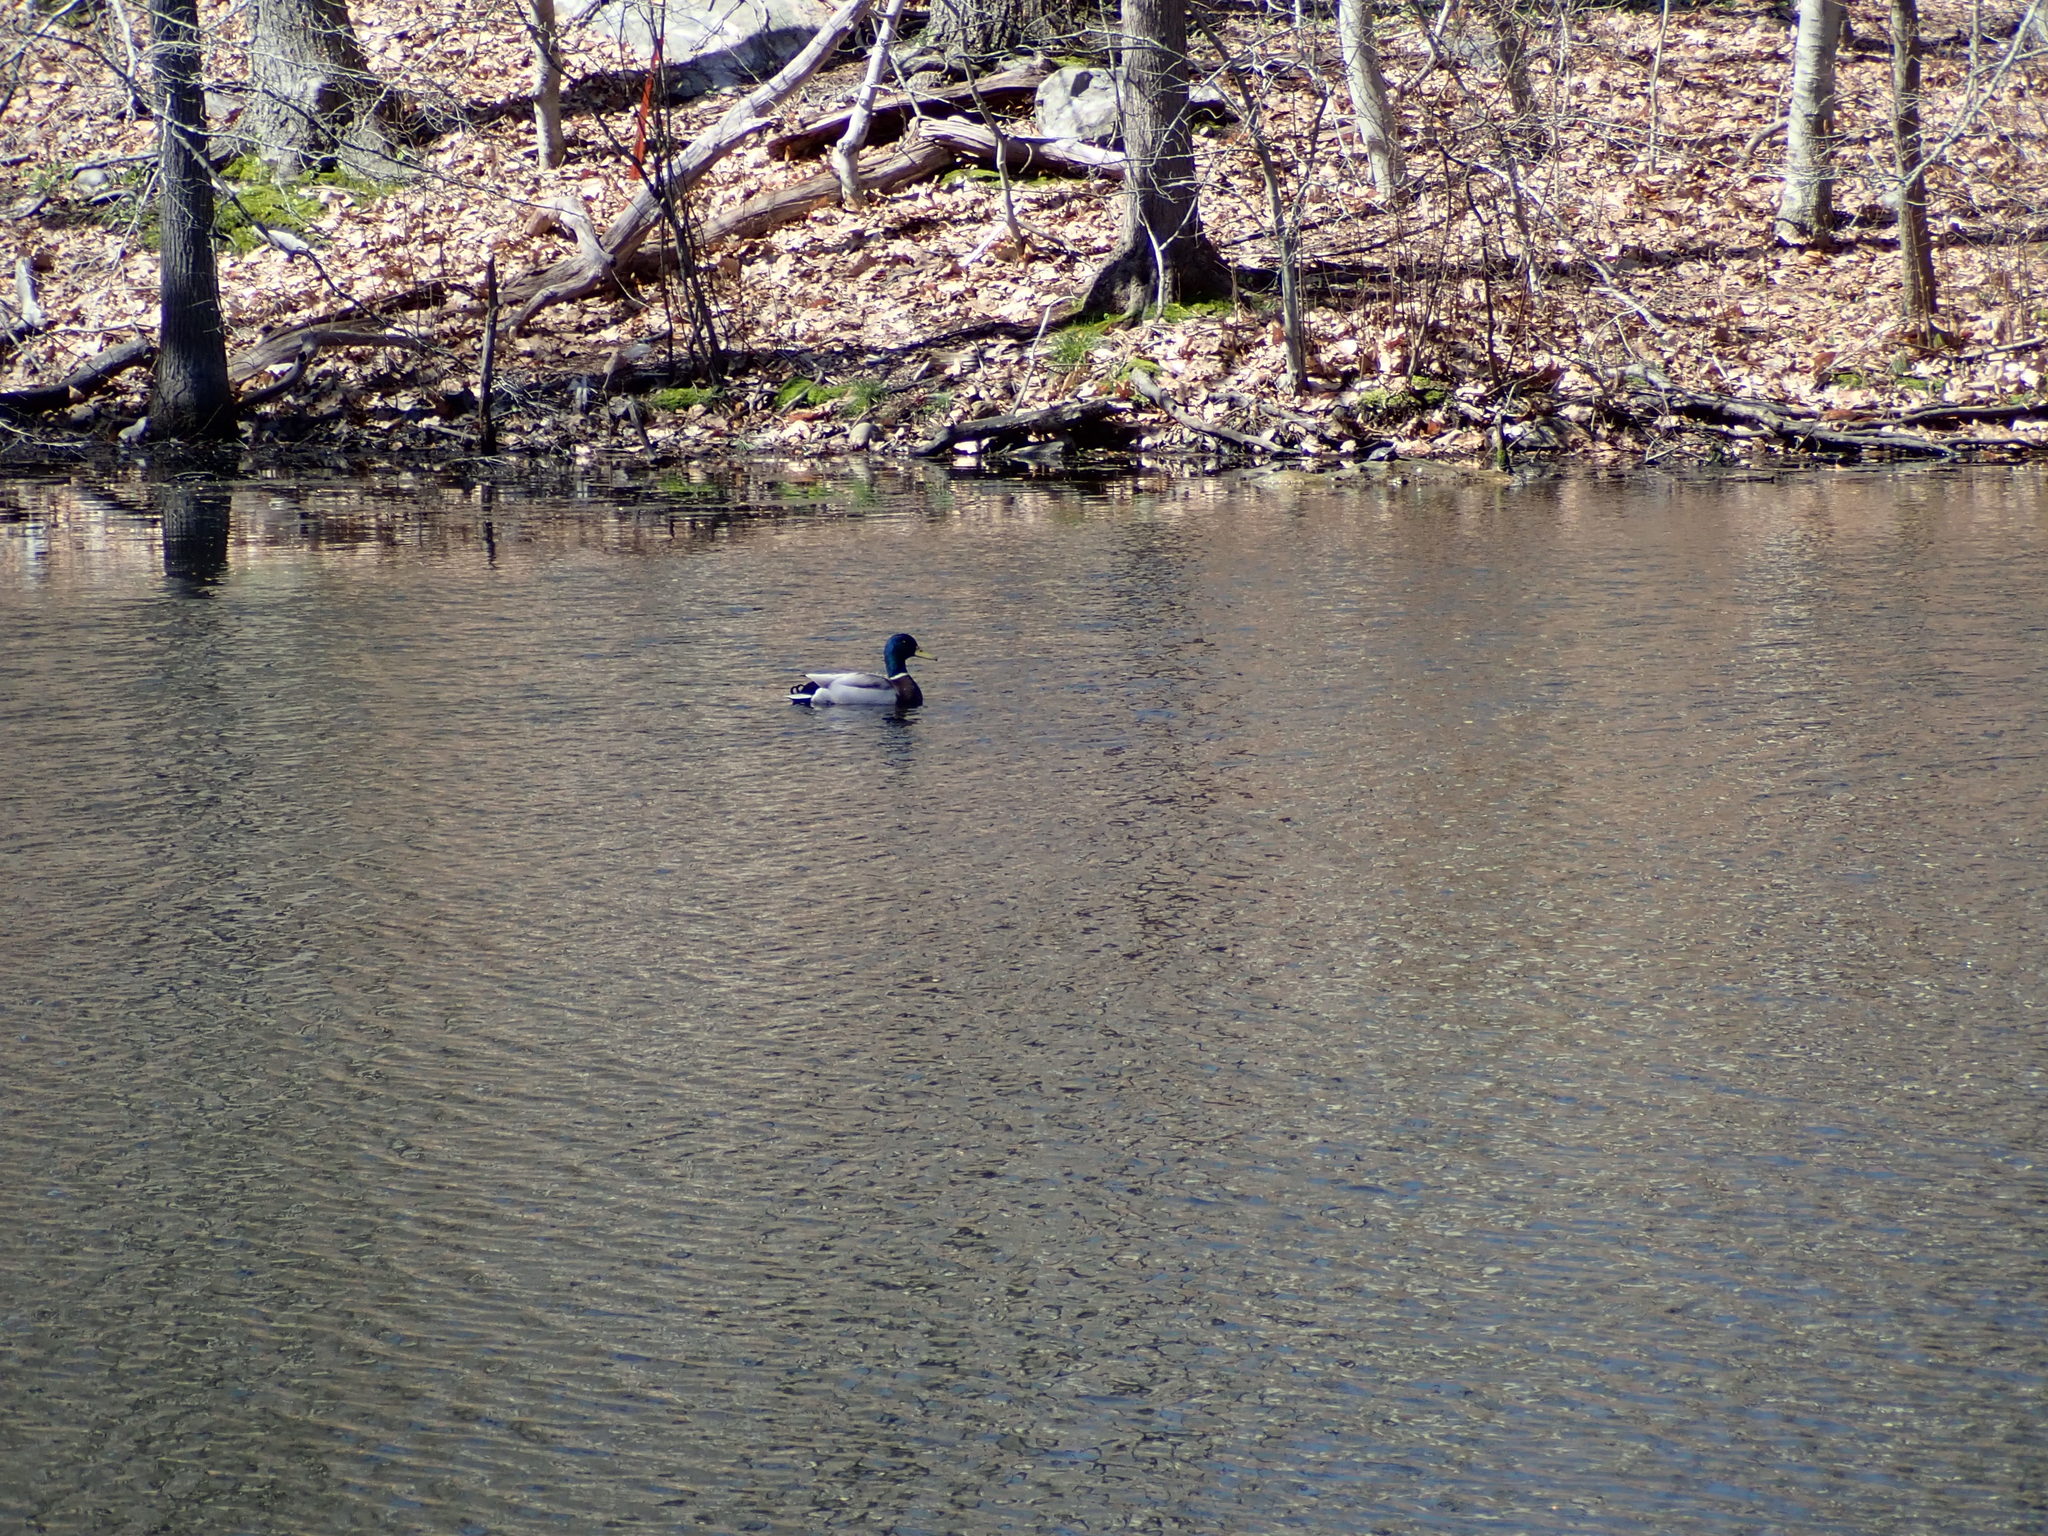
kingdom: Animalia
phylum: Chordata
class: Aves
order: Anseriformes
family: Anatidae
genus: Anas
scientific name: Anas platyrhynchos
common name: Mallard
